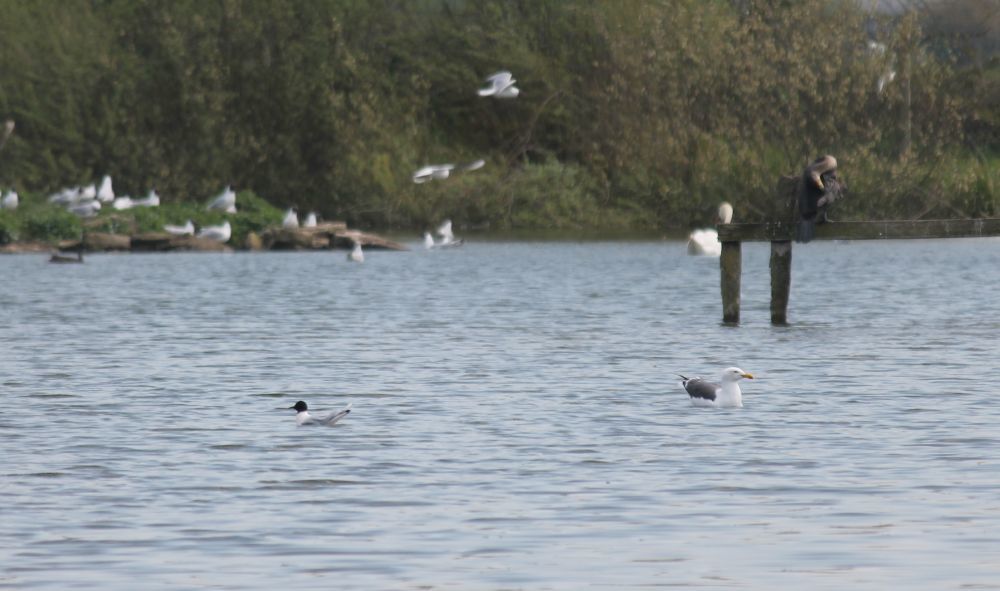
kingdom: Animalia
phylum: Chordata
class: Aves
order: Charadriiformes
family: Laridae
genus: Hydrocoloeus
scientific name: Hydrocoloeus minutus
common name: Little gull
